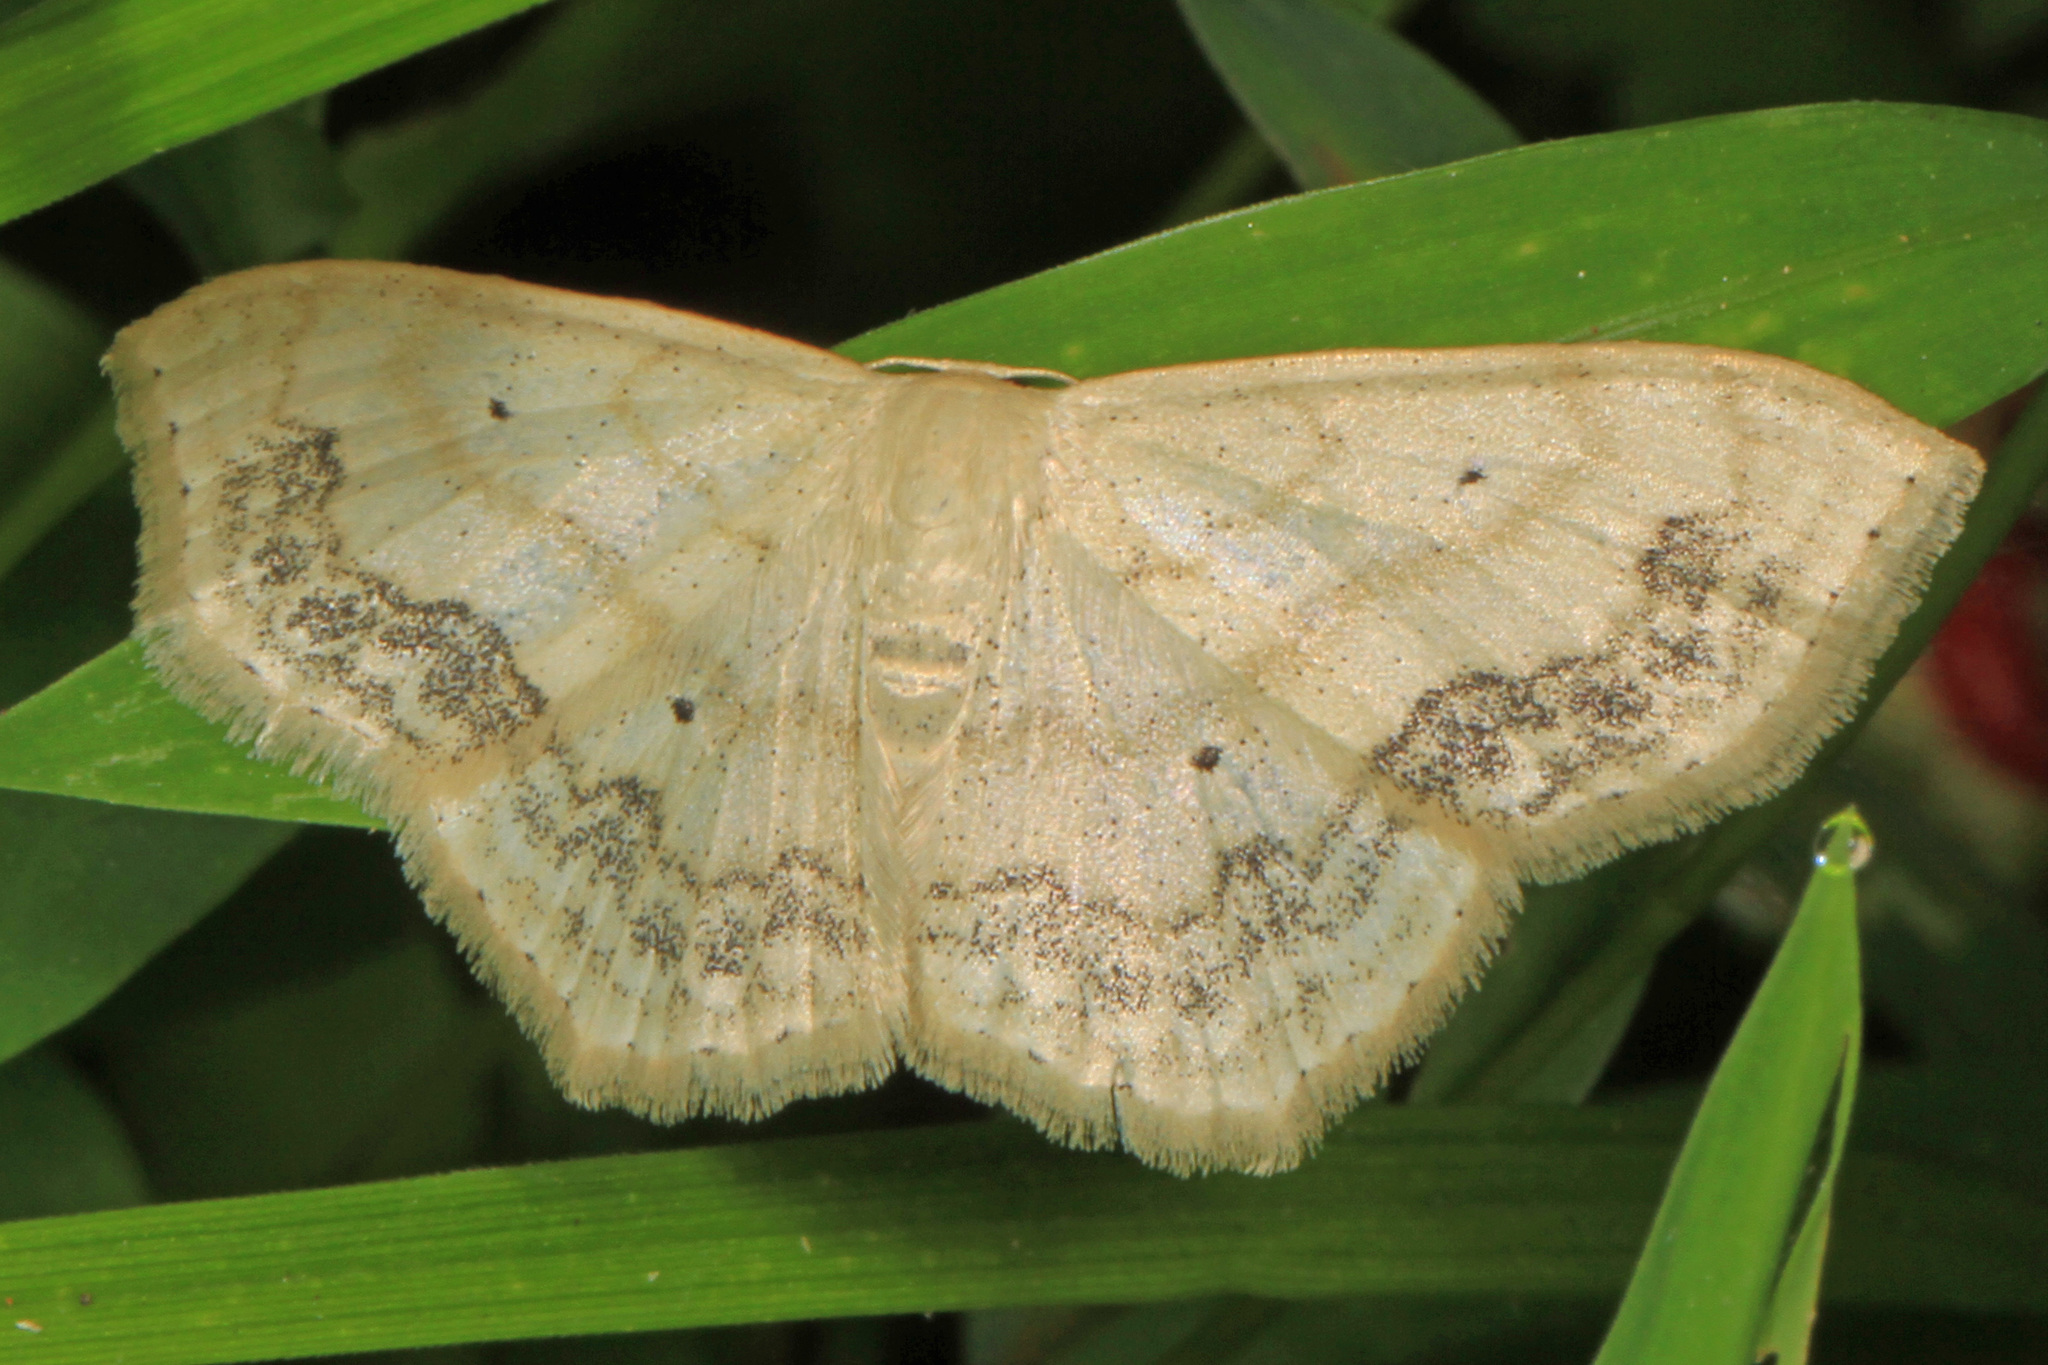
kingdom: Animalia
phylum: Arthropoda
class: Insecta
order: Lepidoptera
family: Geometridae
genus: Scopula
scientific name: Scopula limboundata
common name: Large lace border
